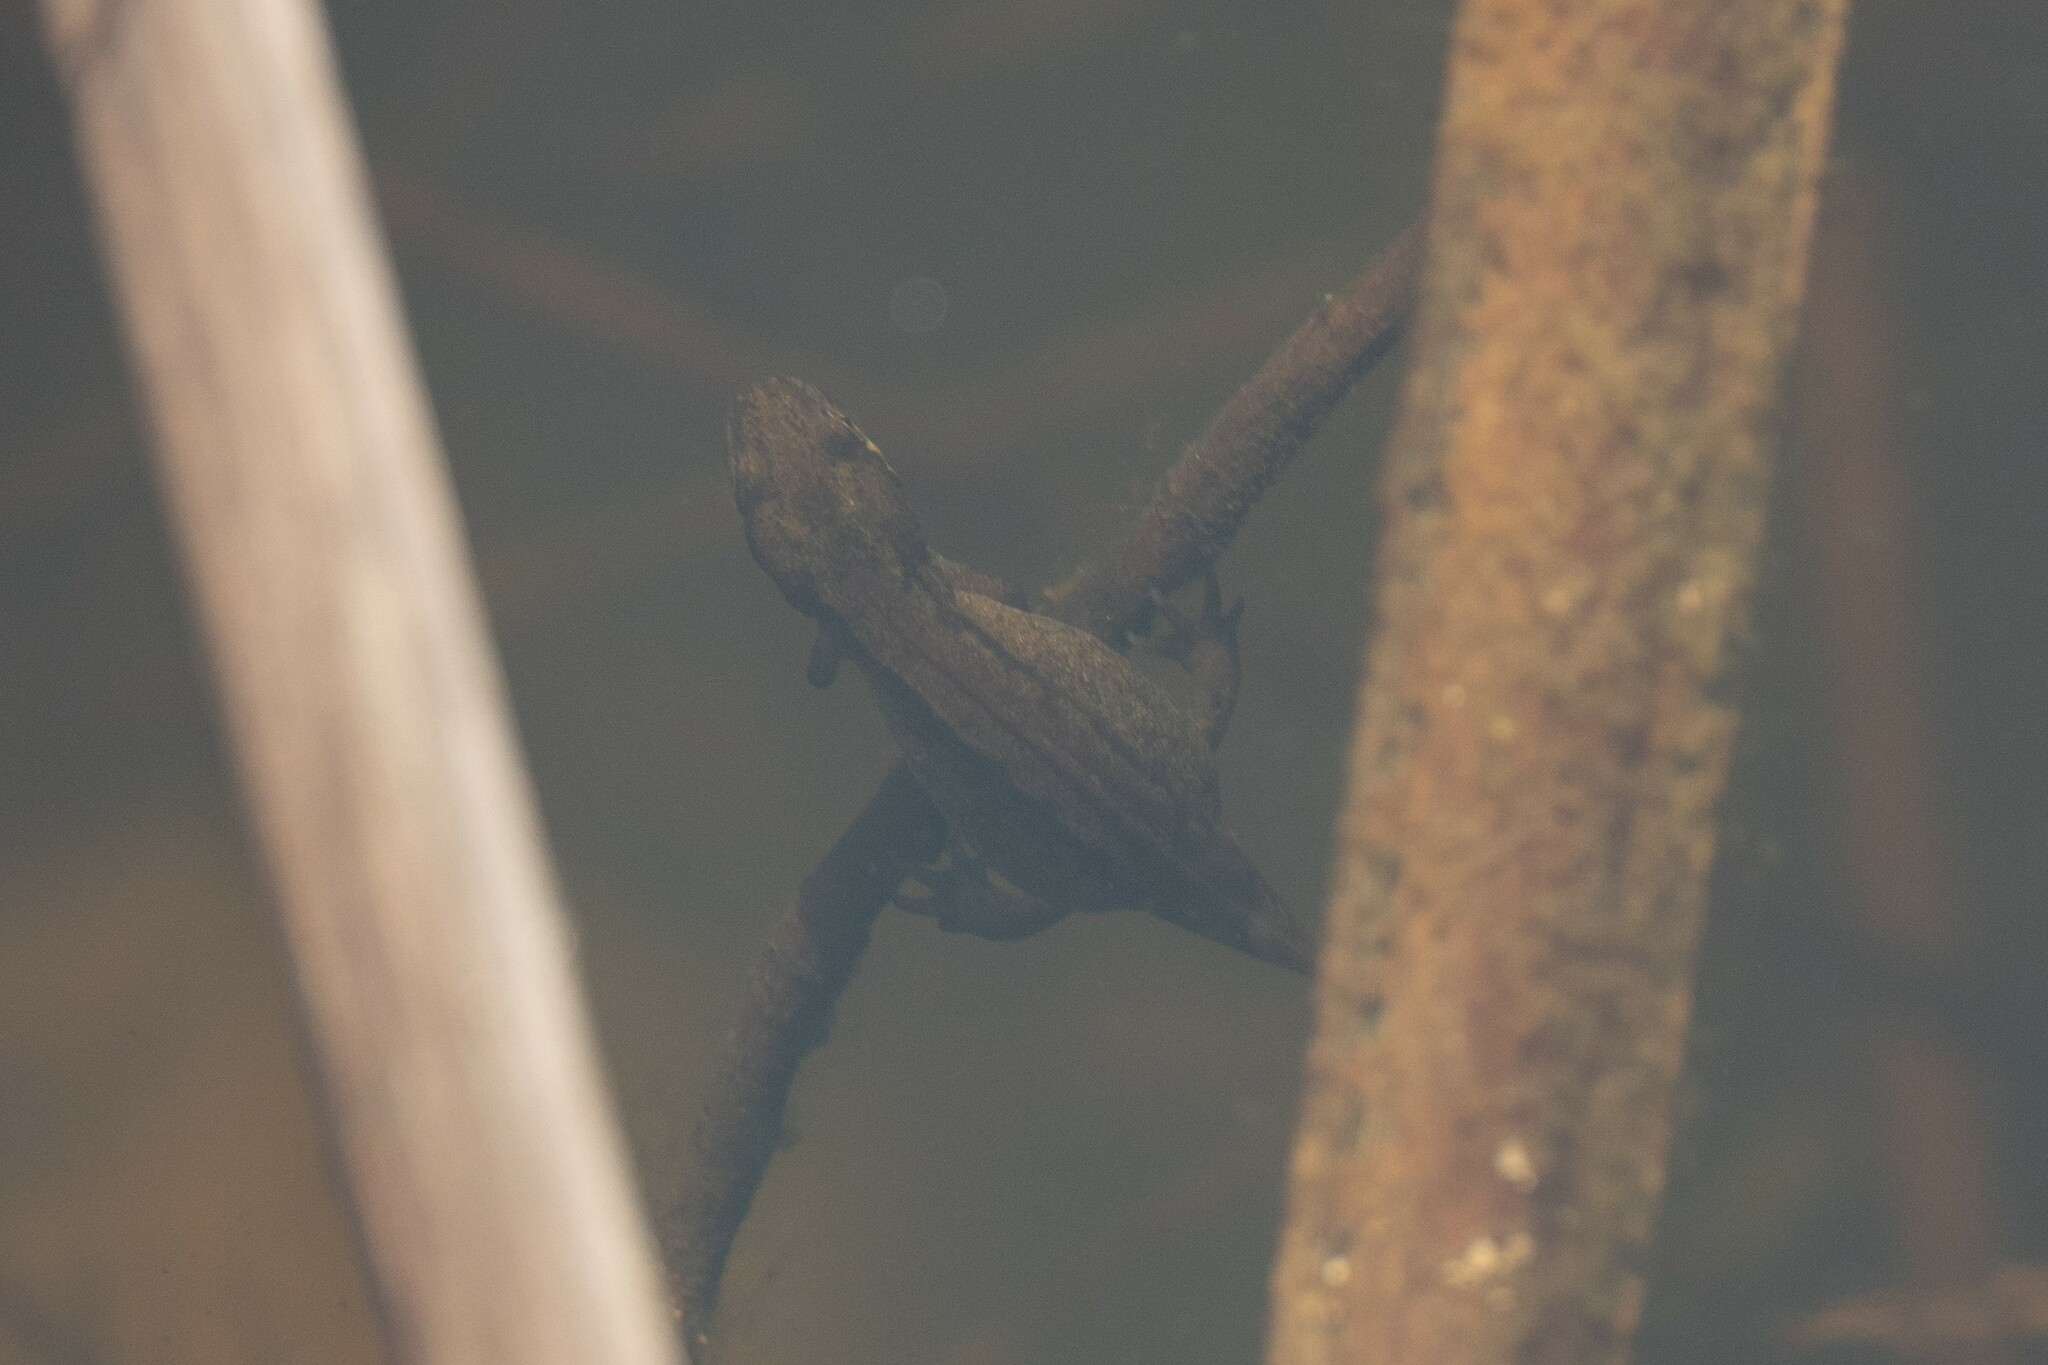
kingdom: Animalia
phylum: Chordata
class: Amphibia
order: Caudata
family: Salamandridae
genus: Lissotriton
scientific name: Lissotriton vulgaris
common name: Smooth newt
